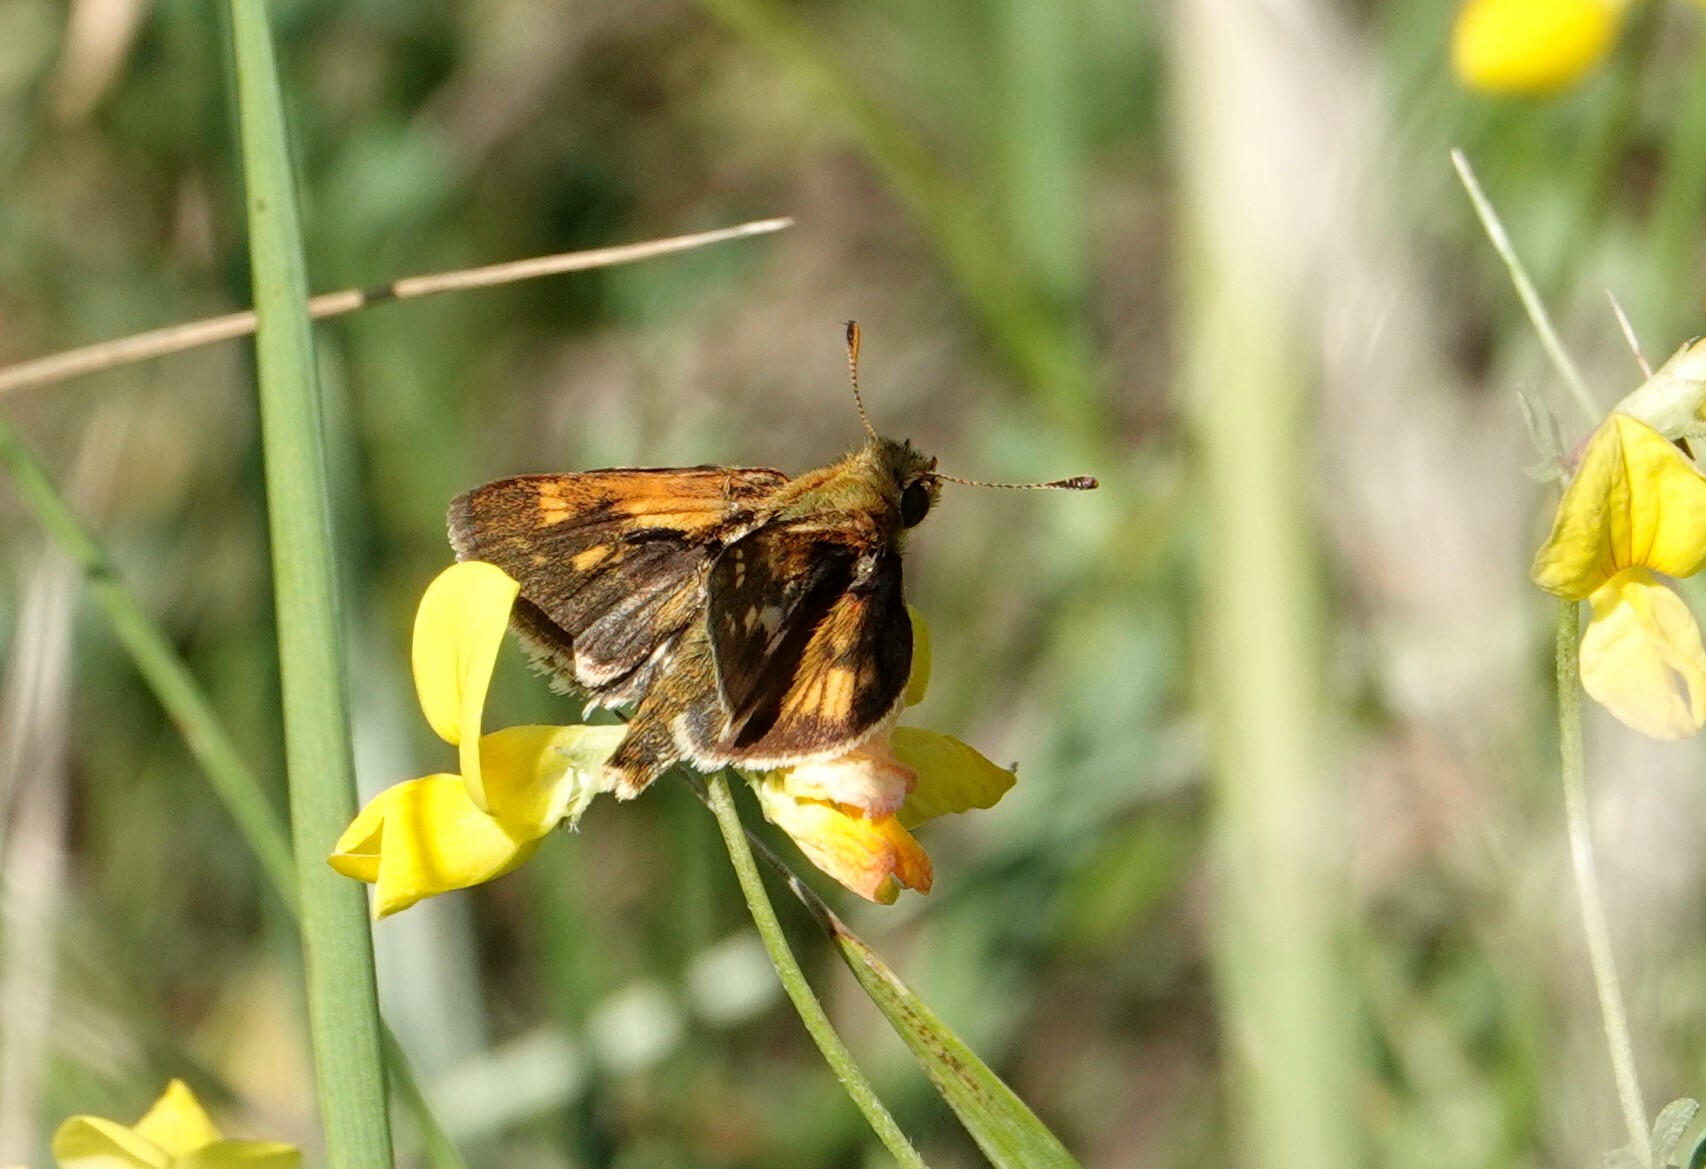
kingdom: Animalia
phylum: Arthropoda
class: Insecta
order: Lepidoptera
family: Hesperiidae
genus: Polites
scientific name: Polites coras
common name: Peck's skipper
